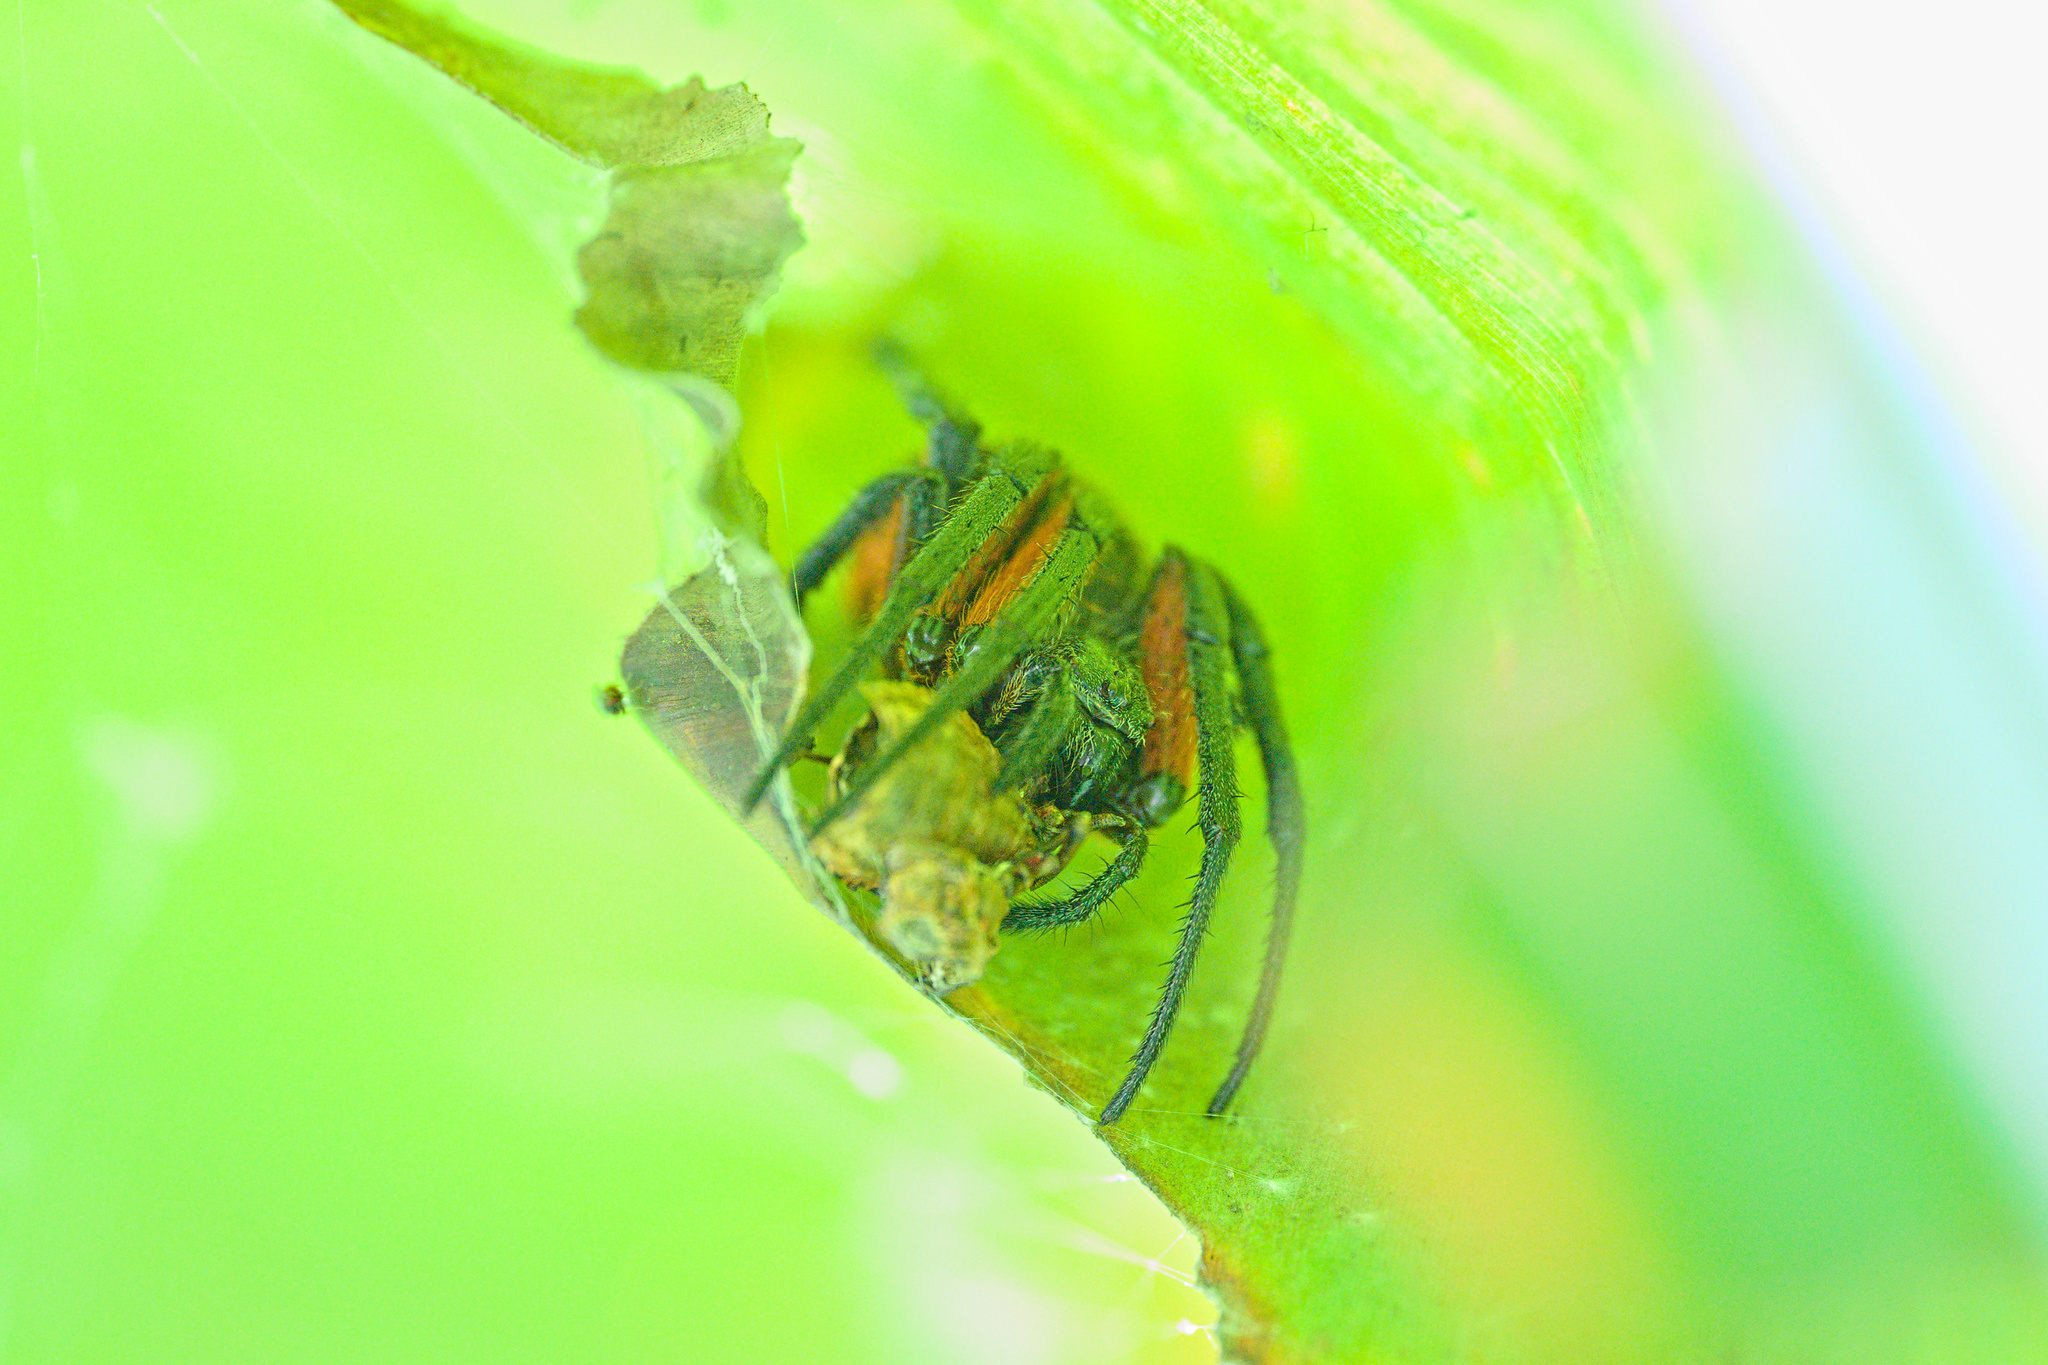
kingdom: Animalia
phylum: Arthropoda
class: Arachnida
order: Araneae
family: Araneidae
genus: Eriophora
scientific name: Eriophora fuliginea
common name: Orb weavers
